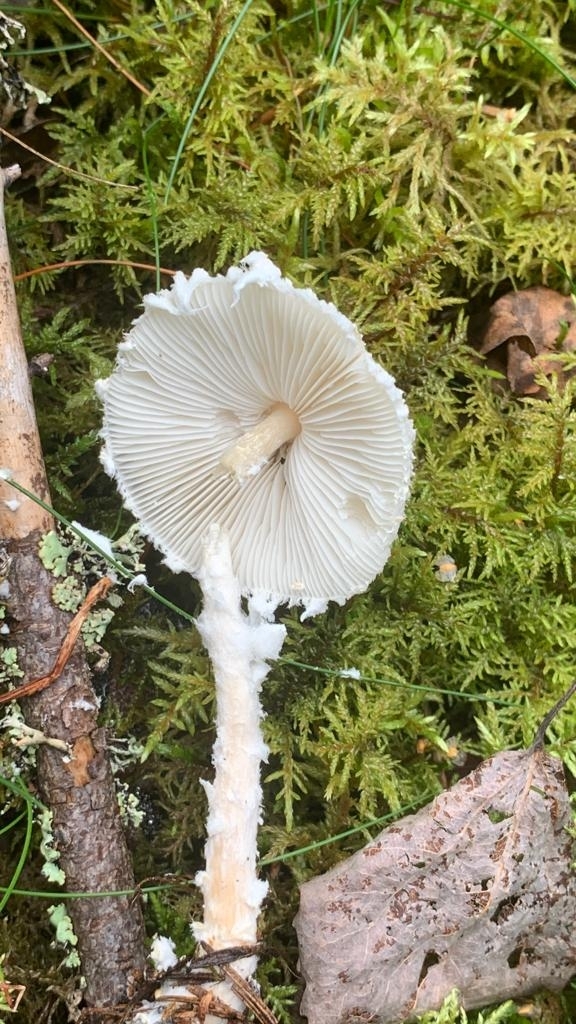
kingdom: Fungi
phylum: Basidiomycota
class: Agaricomycetes
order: Agaricales
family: Agaricaceae
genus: Lepiota
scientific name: Lepiota clypeolaria
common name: Shield dapperling
